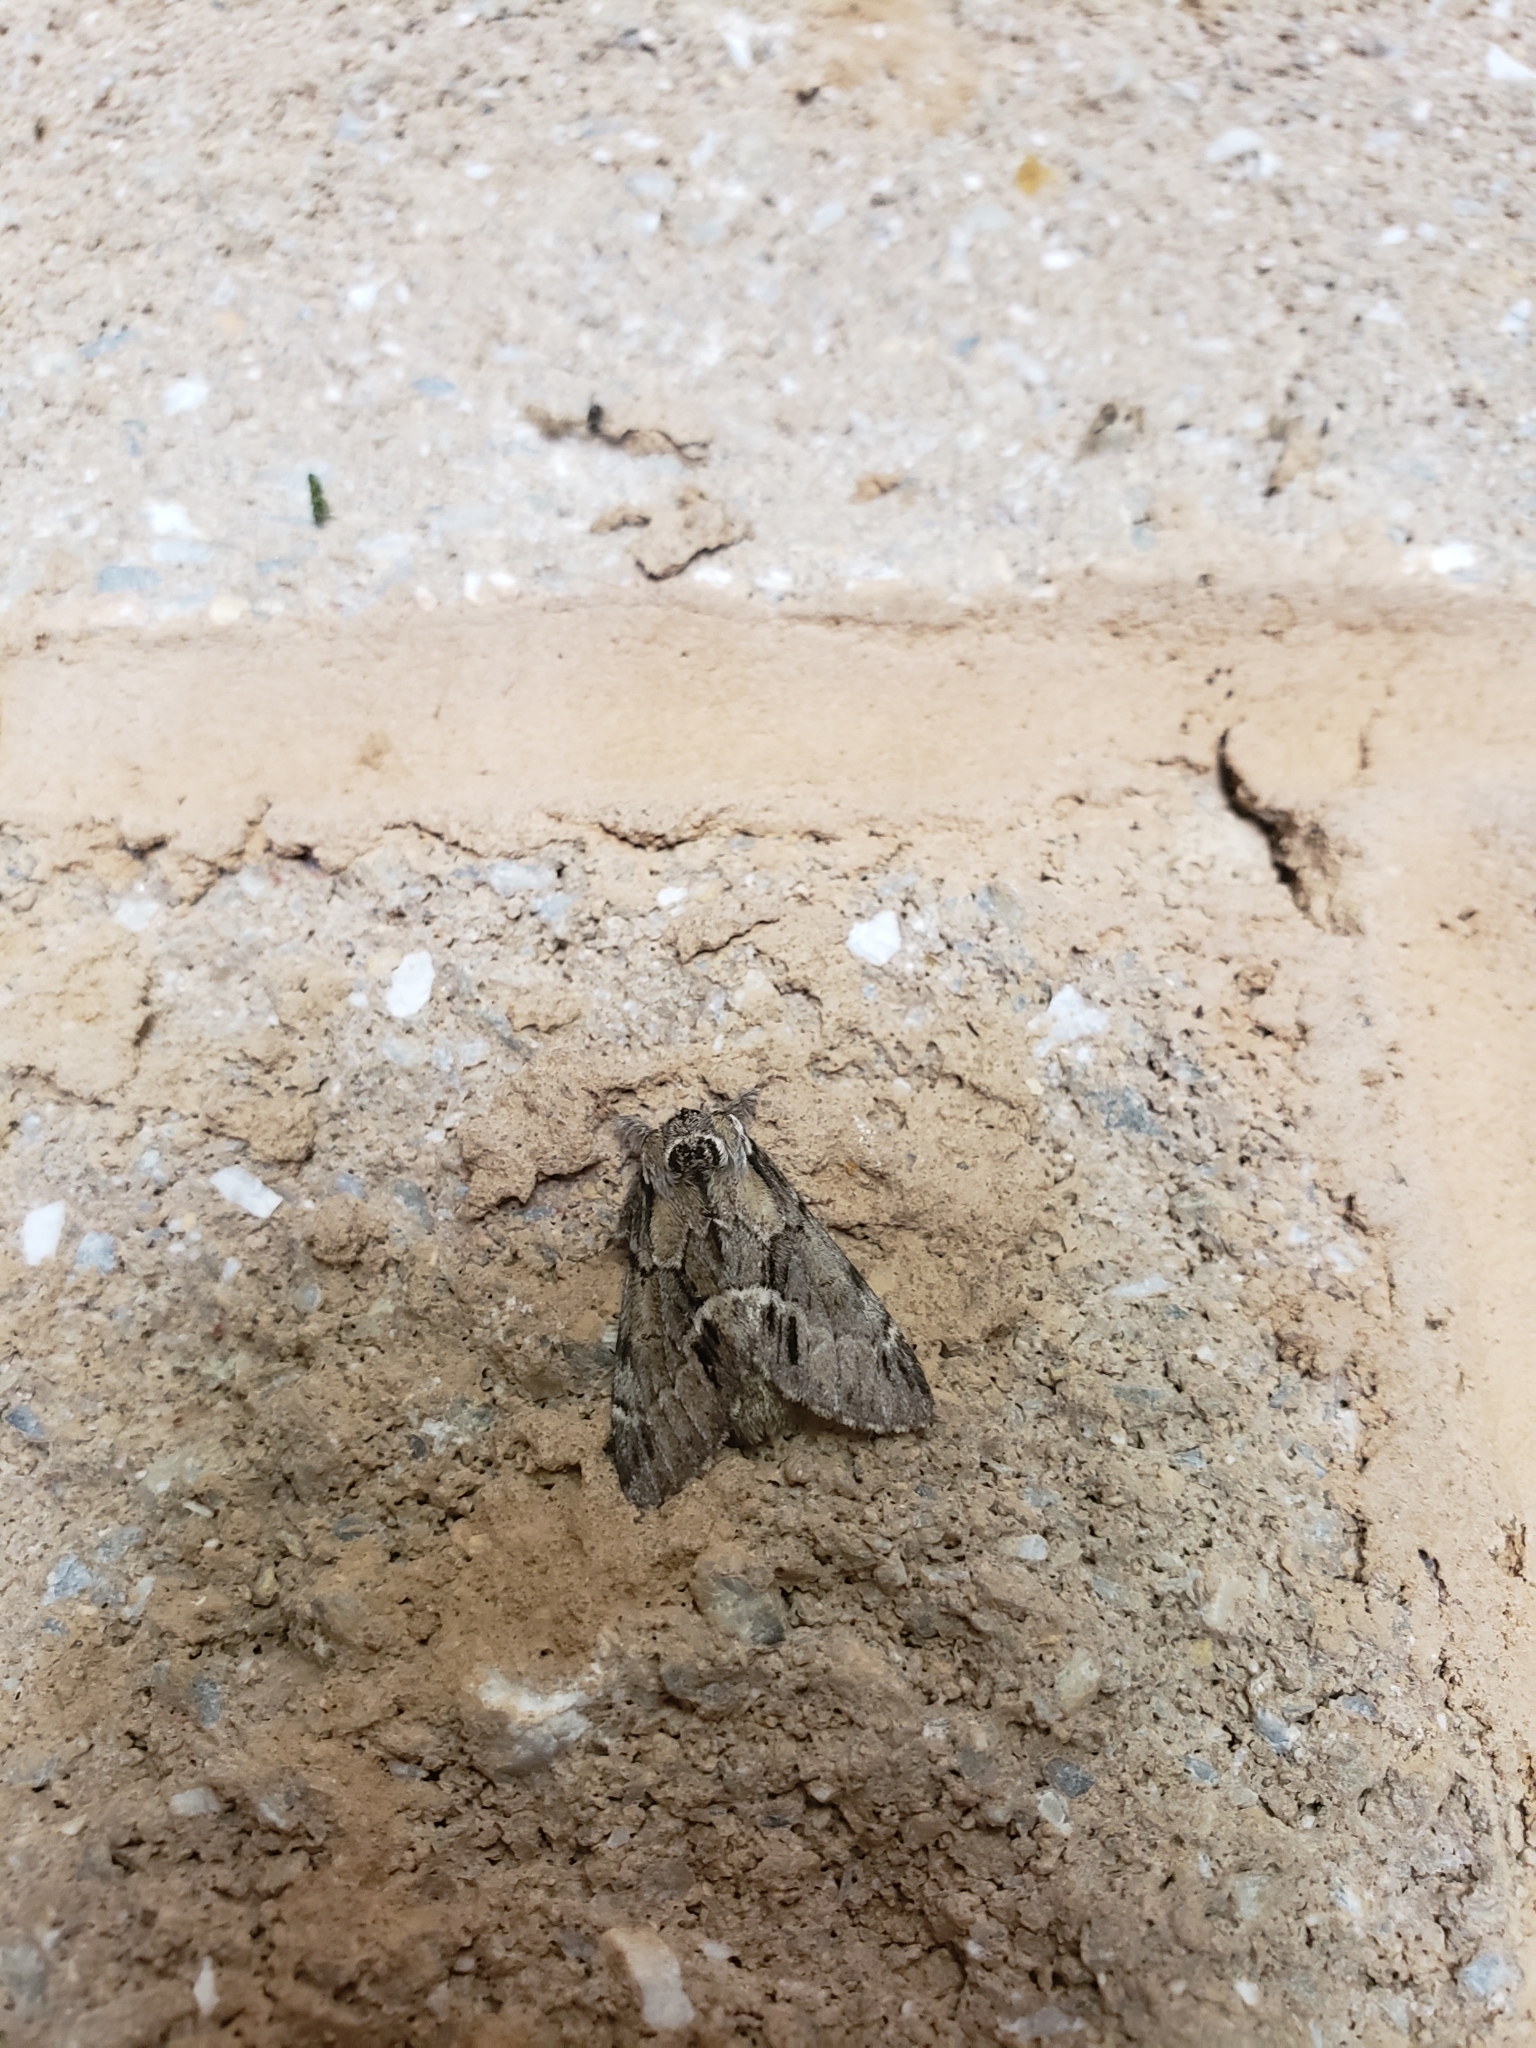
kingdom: Animalia
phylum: Arthropoda
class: Insecta
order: Lepidoptera
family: Notodontidae
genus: Paraeschra
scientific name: Paraeschra georgica
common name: Georgian prominent
